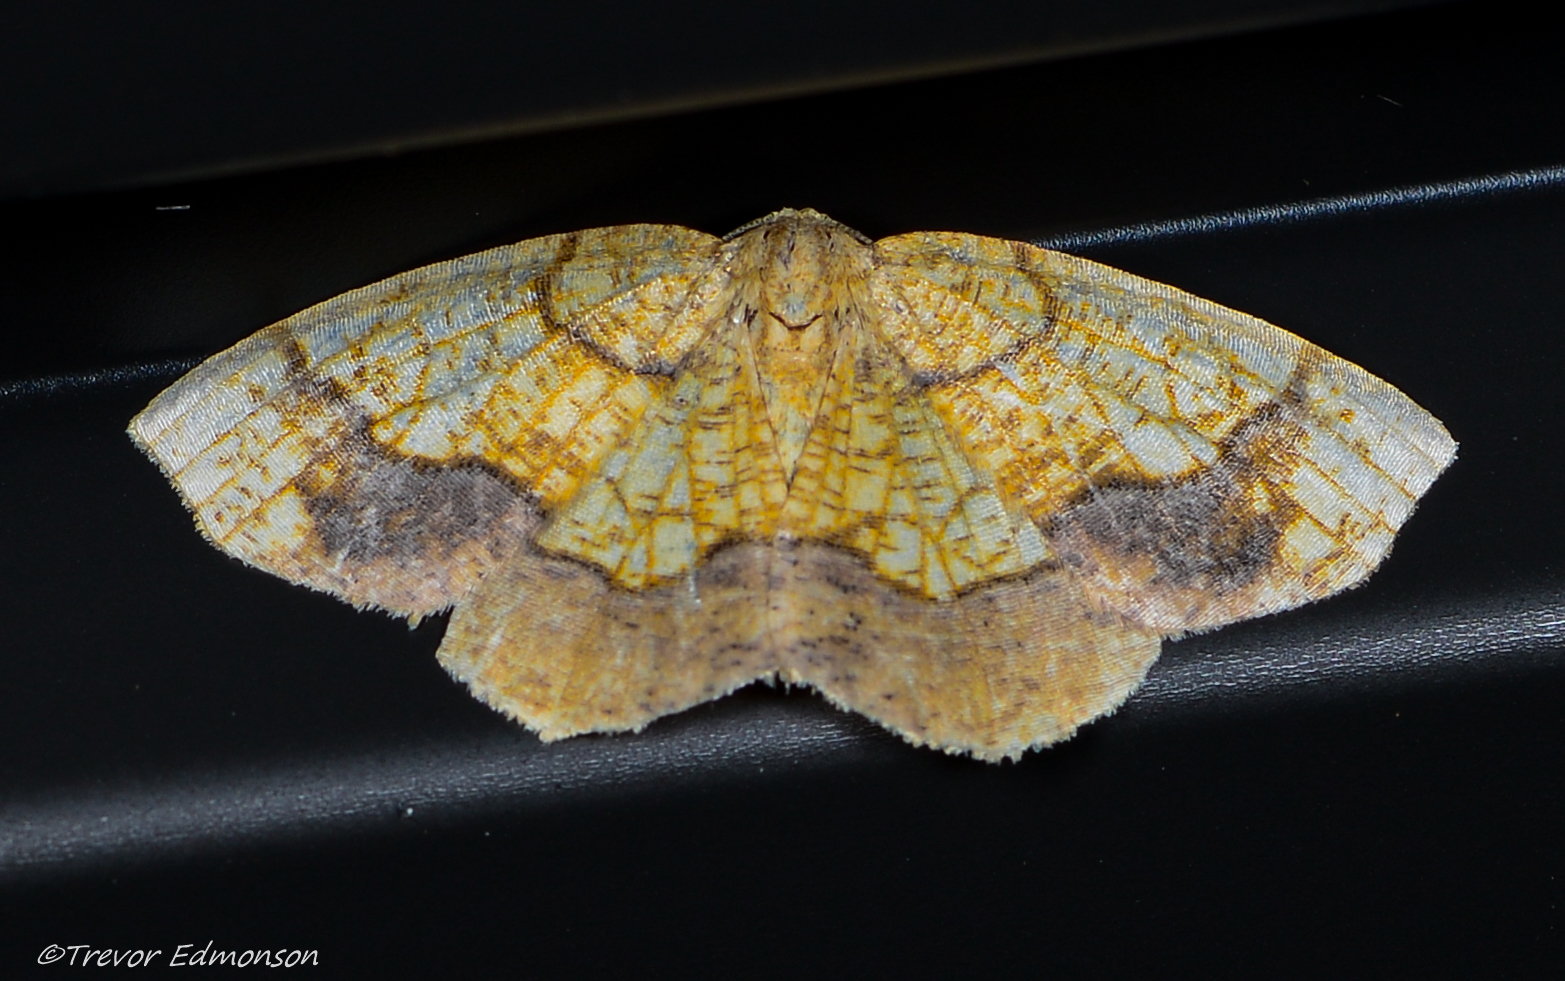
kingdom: Animalia
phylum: Arthropoda
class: Insecta
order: Lepidoptera
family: Geometridae
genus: Nematocampa
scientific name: Nematocampa resistaria
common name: Horned spanworm moth
